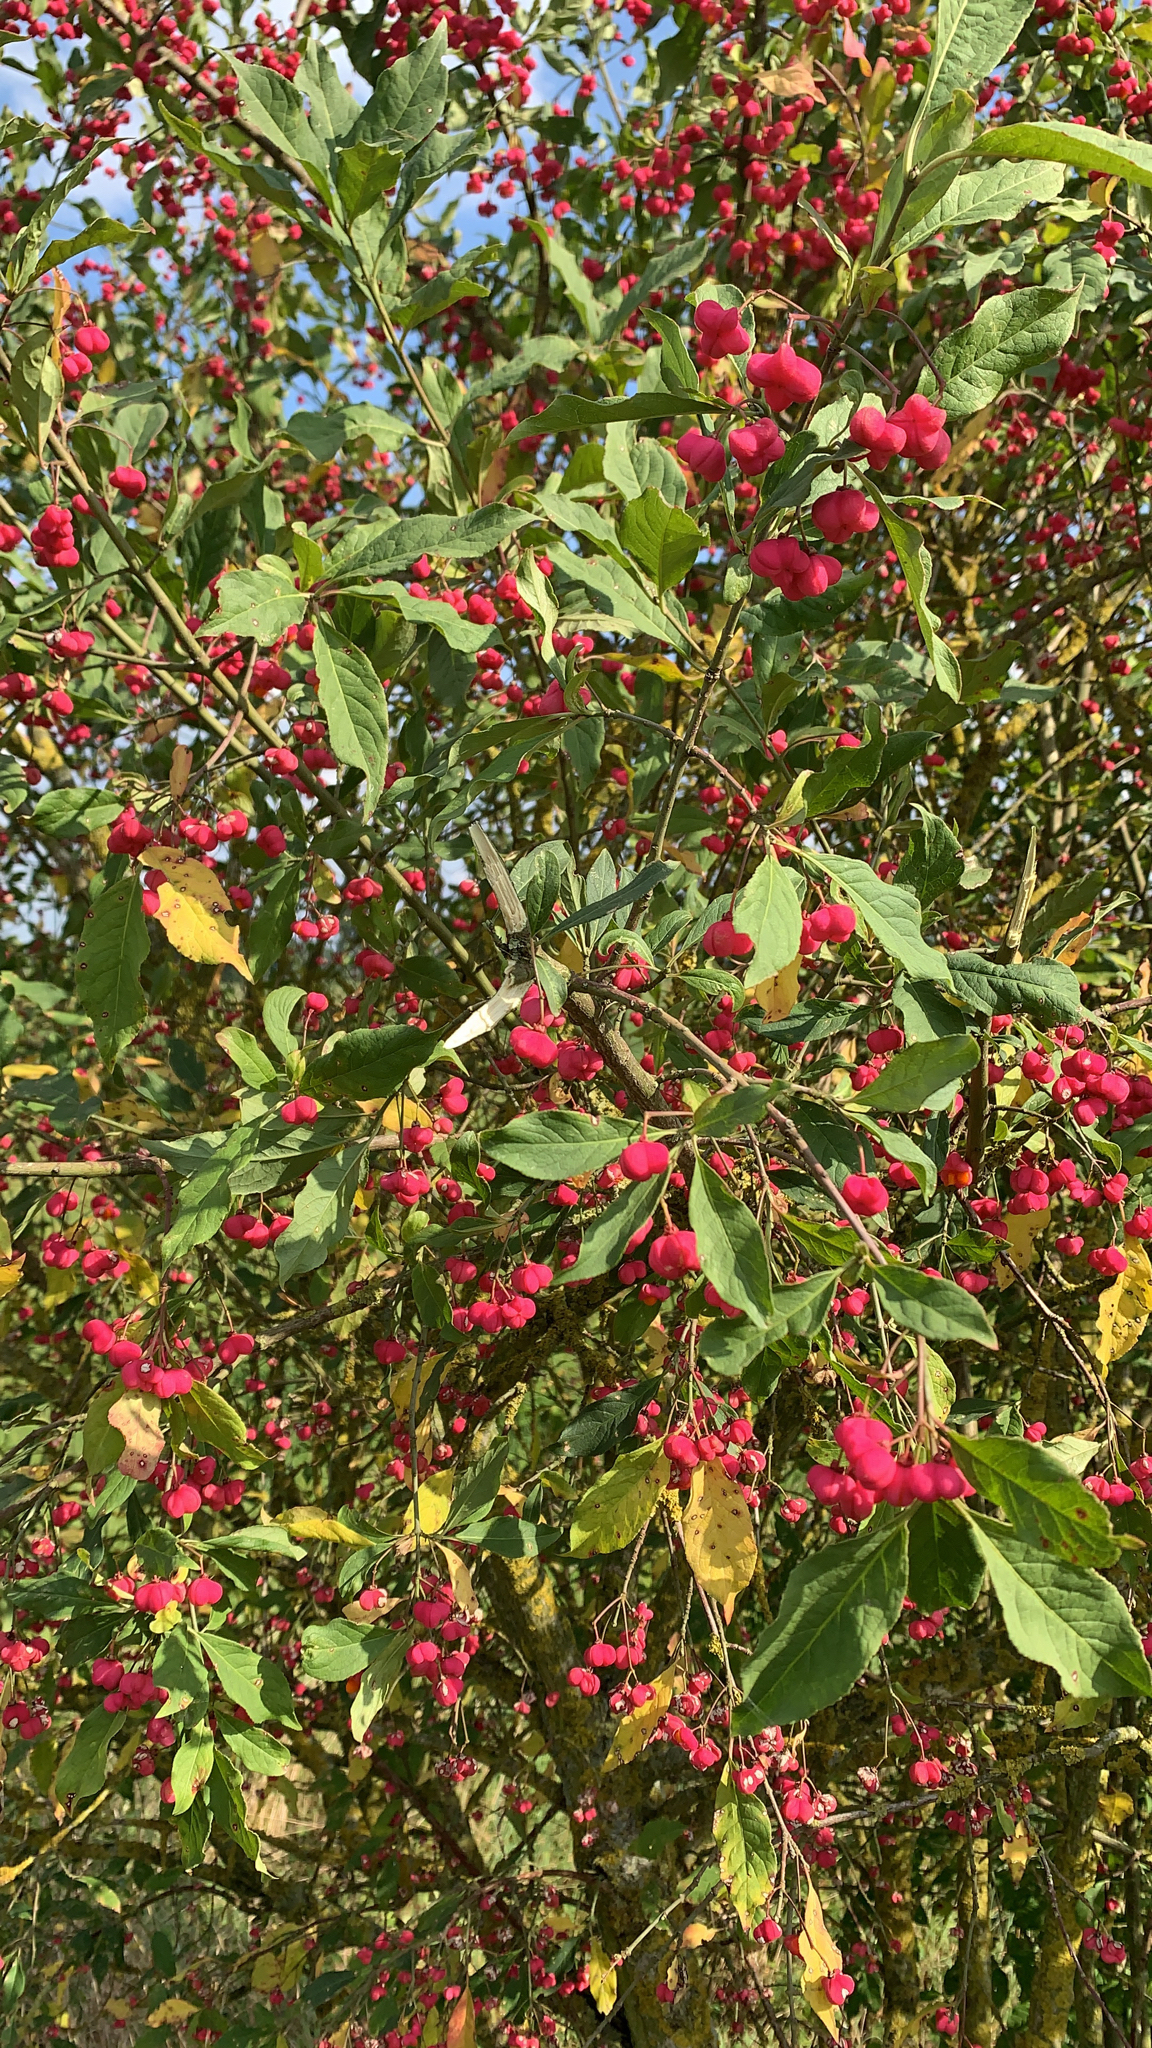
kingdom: Plantae
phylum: Tracheophyta
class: Magnoliopsida
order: Celastrales
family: Celastraceae
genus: Euonymus
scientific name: Euonymus europaeus
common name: Spindle
